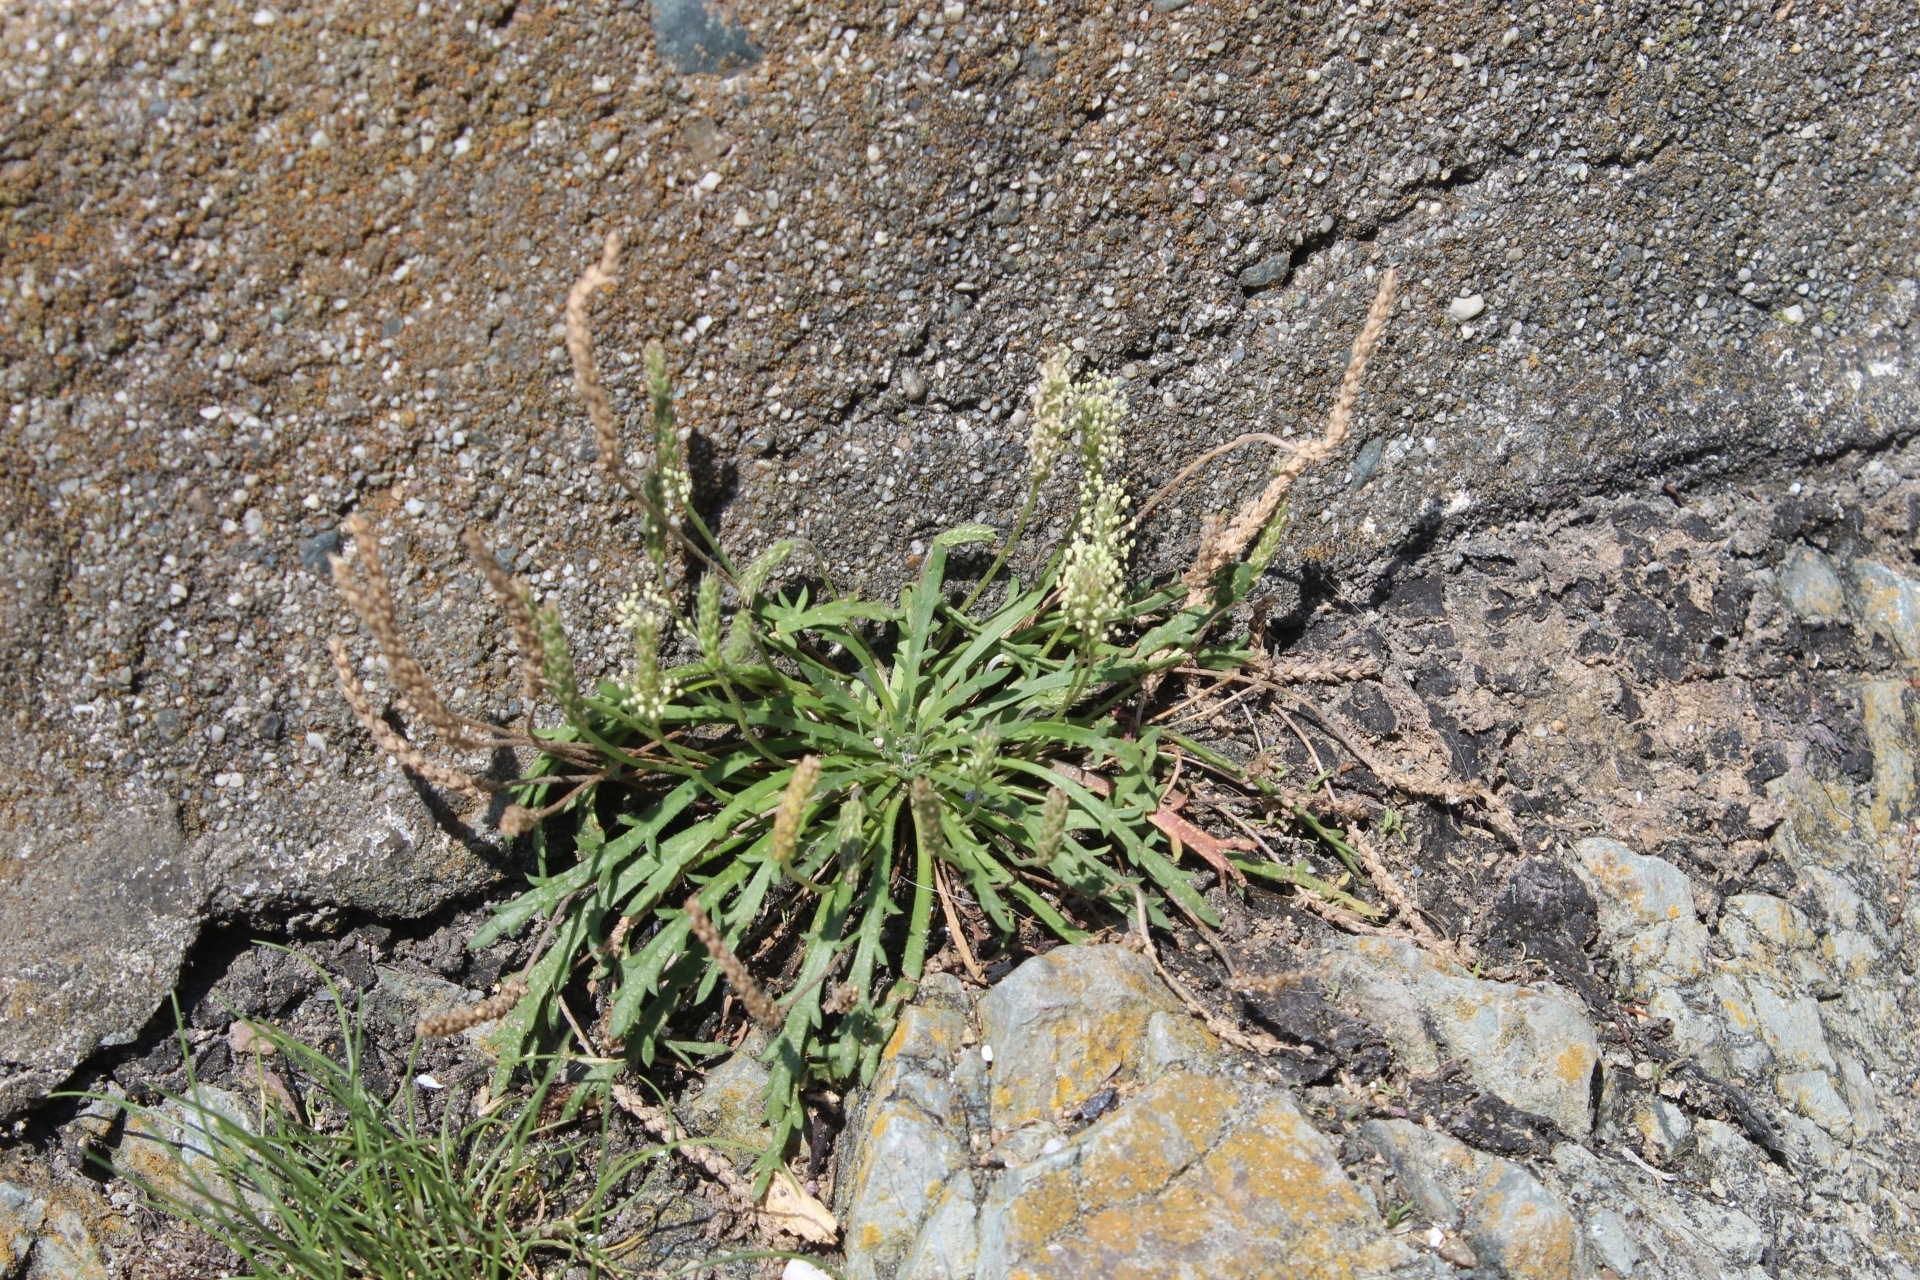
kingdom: Plantae
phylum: Tracheophyta
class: Magnoliopsida
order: Lamiales
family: Plantaginaceae
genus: Plantago
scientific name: Plantago coronopus
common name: Buck's-horn plantain
